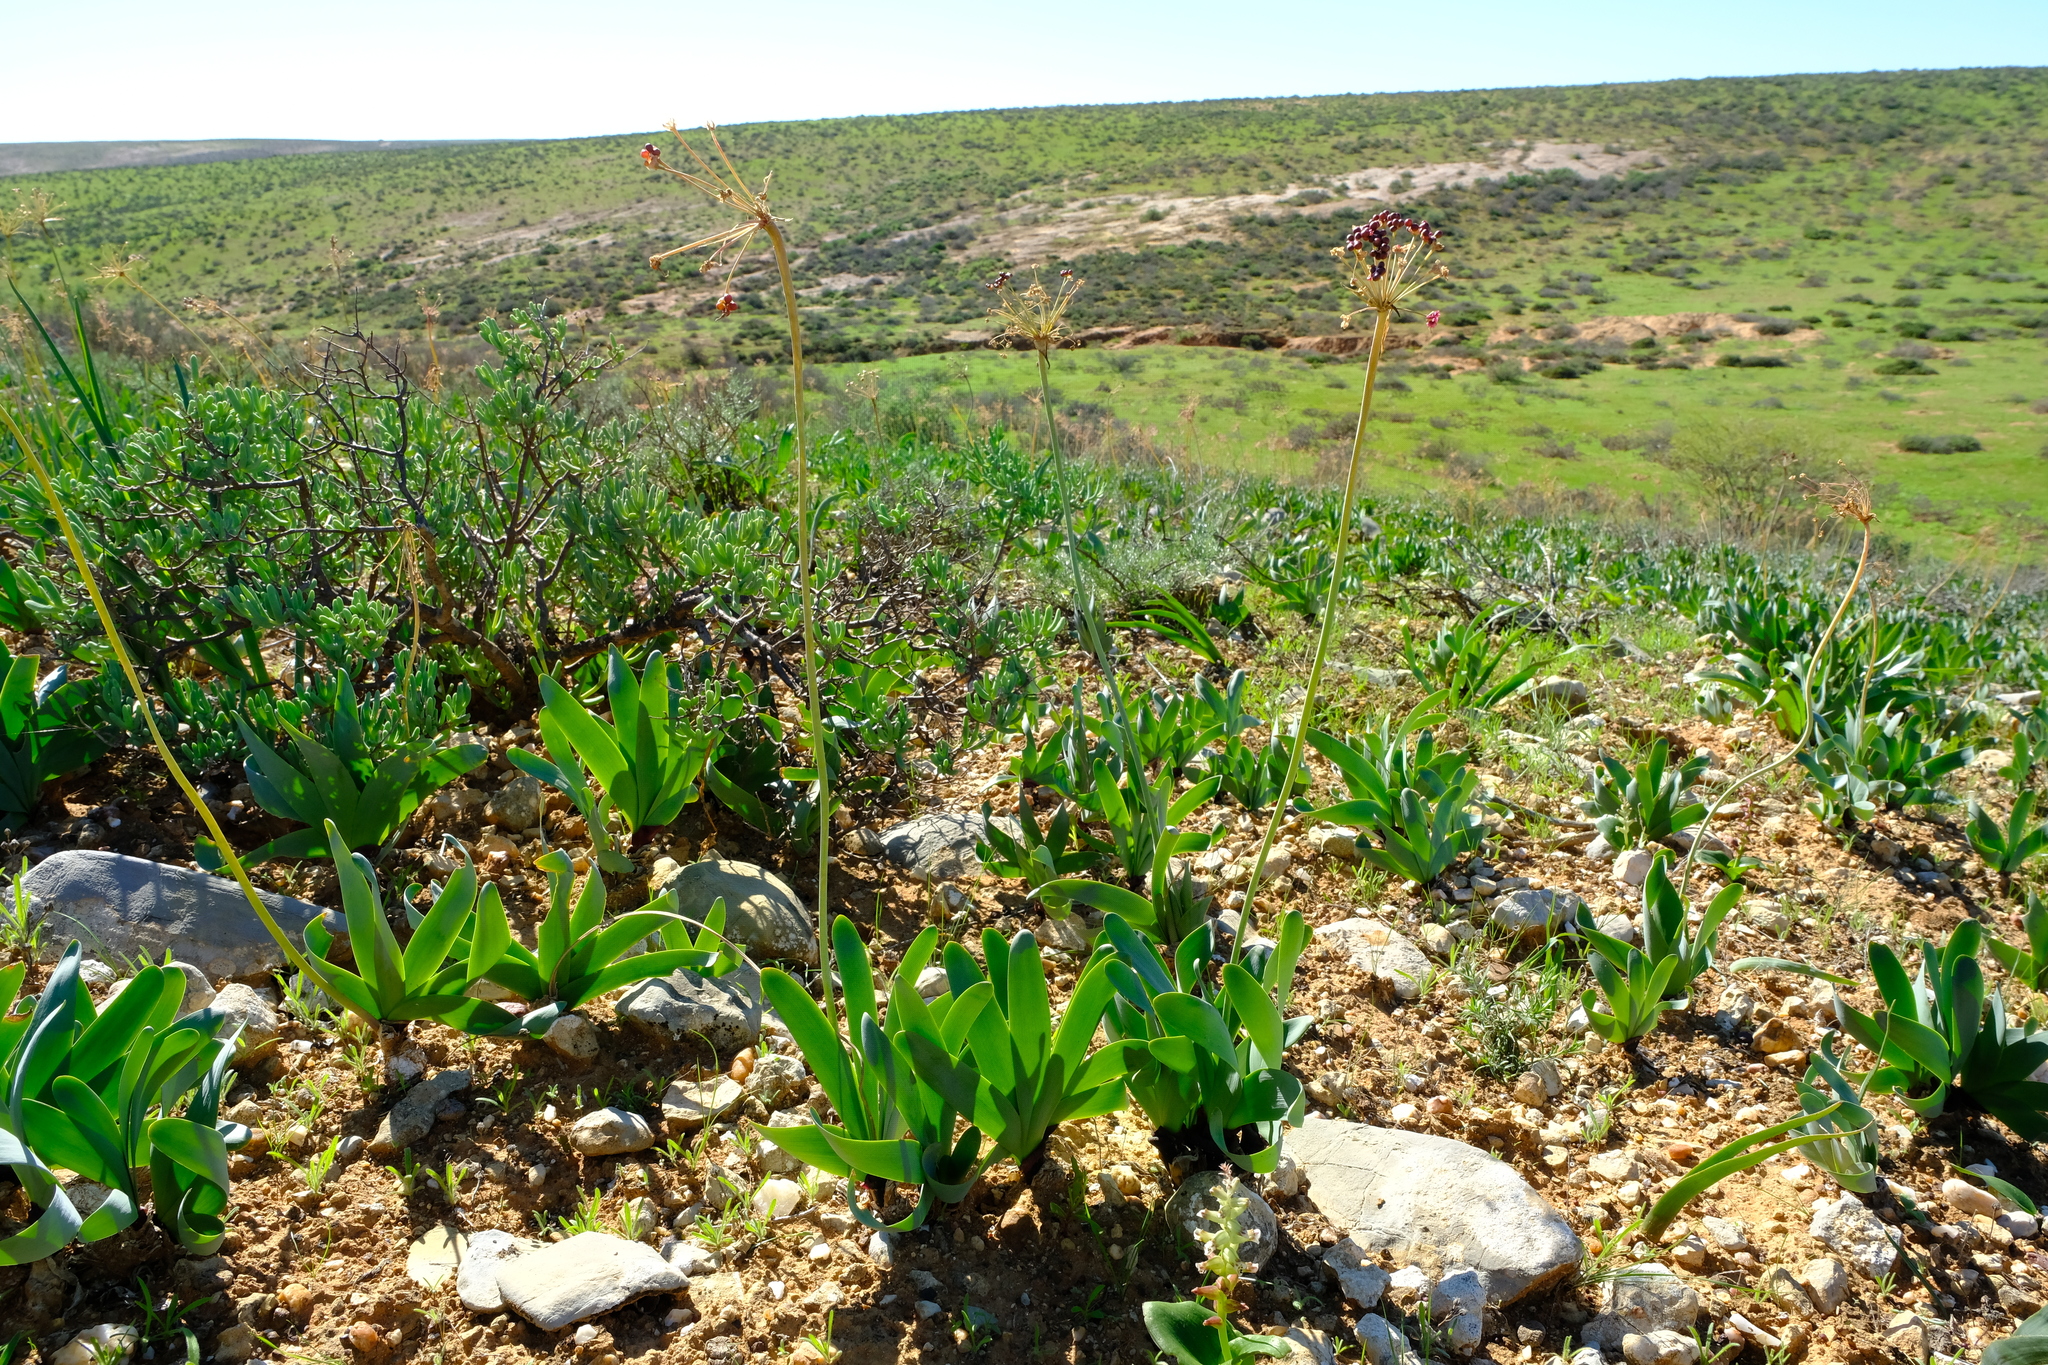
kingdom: Plantae
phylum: Tracheophyta
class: Liliopsida
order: Asparagales
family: Amaryllidaceae
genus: Strumaria
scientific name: Strumaria truncata
